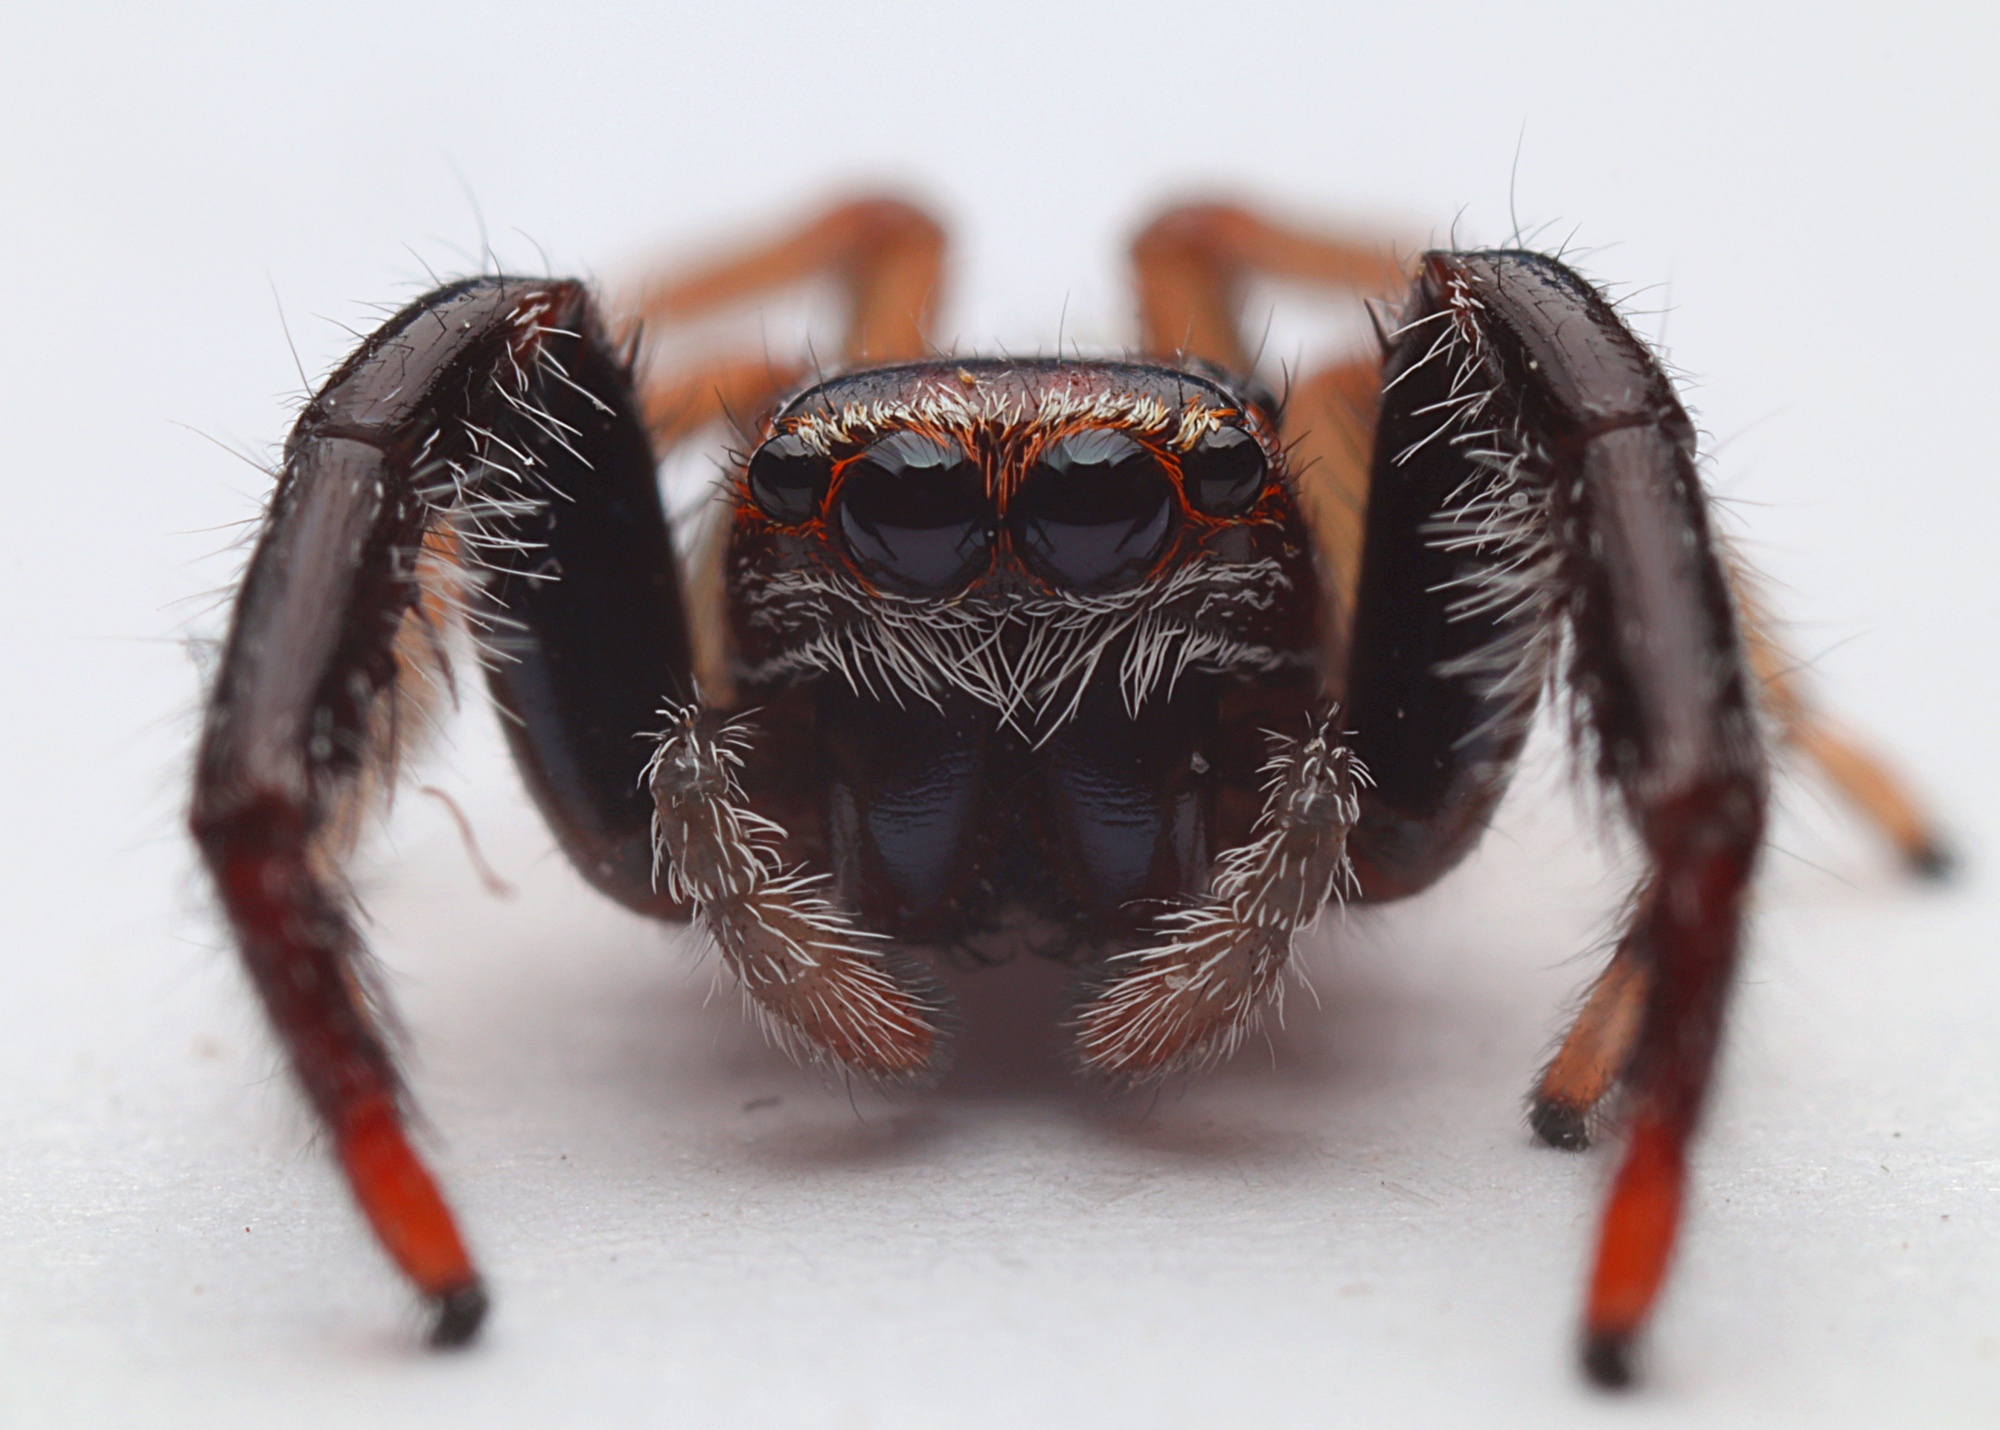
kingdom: Animalia
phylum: Arthropoda
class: Arachnida
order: Araneae
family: Salticidae
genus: Trite
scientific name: Trite planiceps
